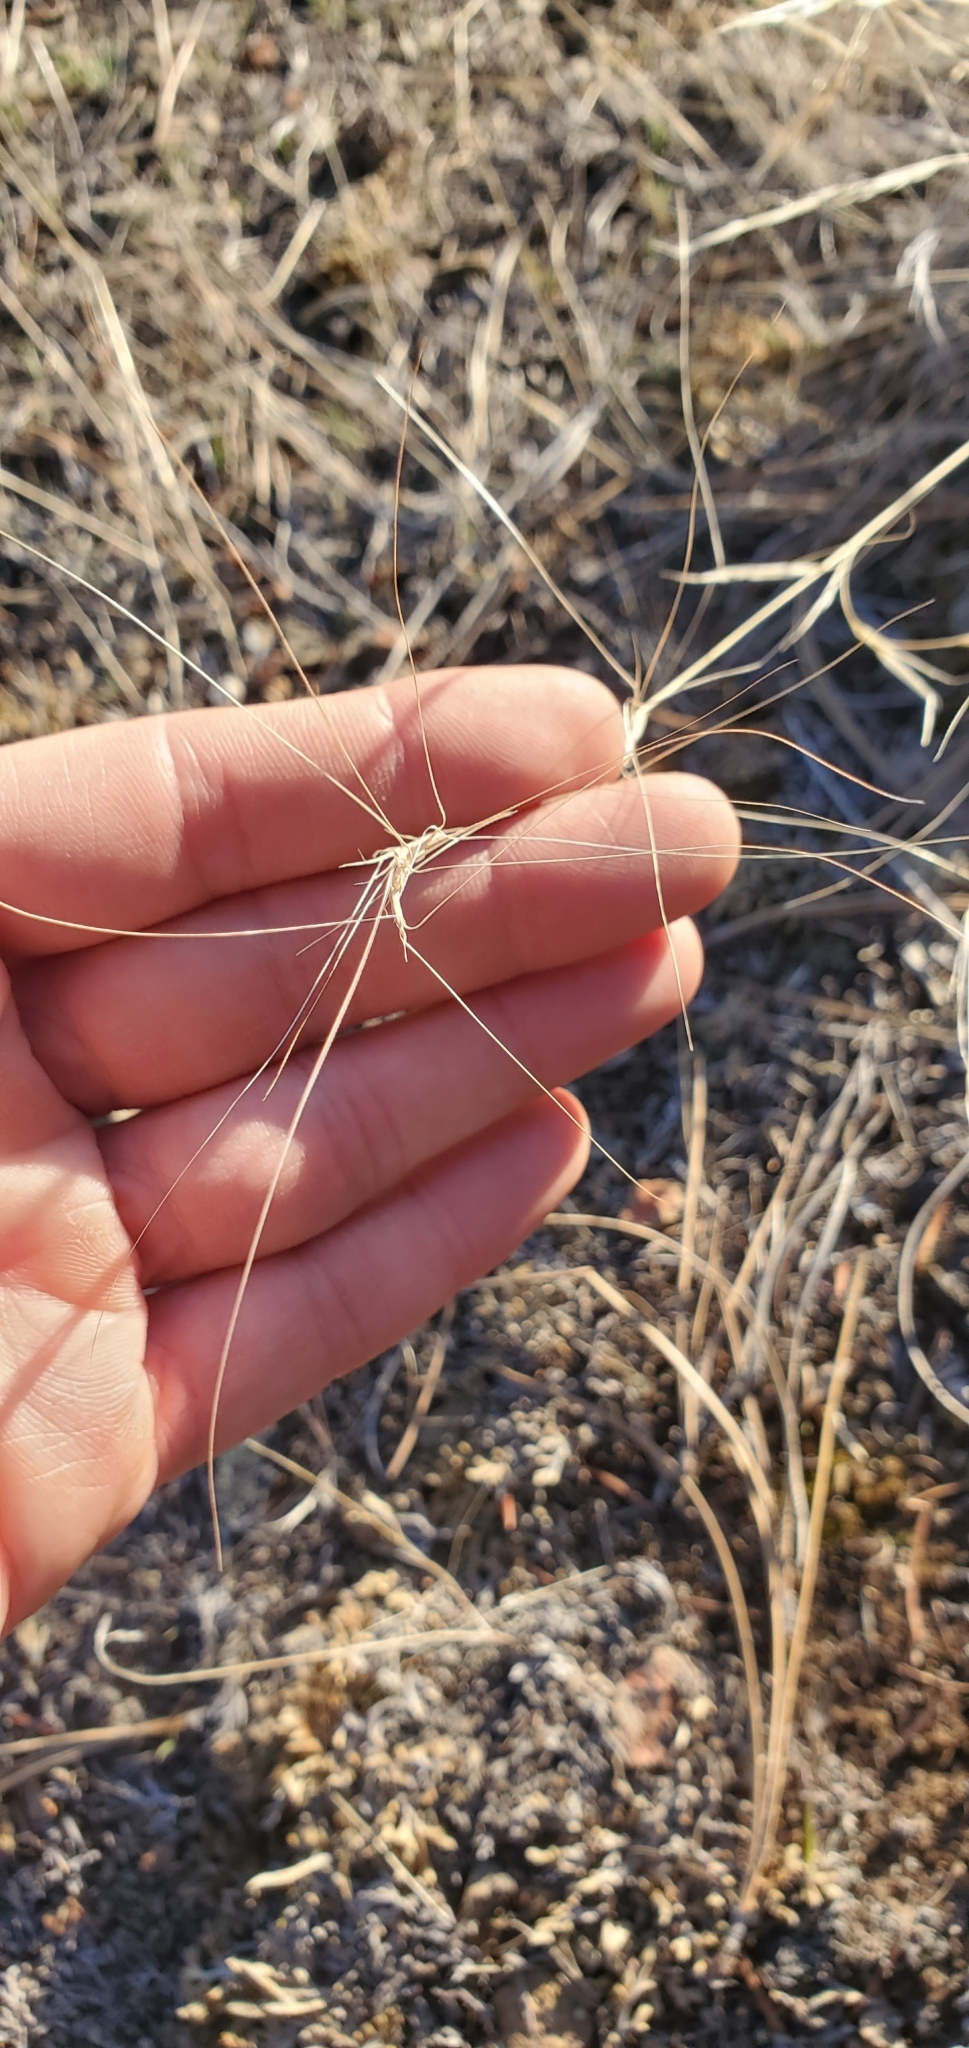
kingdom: Plantae
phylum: Tracheophyta
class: Liliopsida
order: Poales
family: Poaceae
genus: Aristida
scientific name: Aristida purpurea
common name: Purple threeawn
